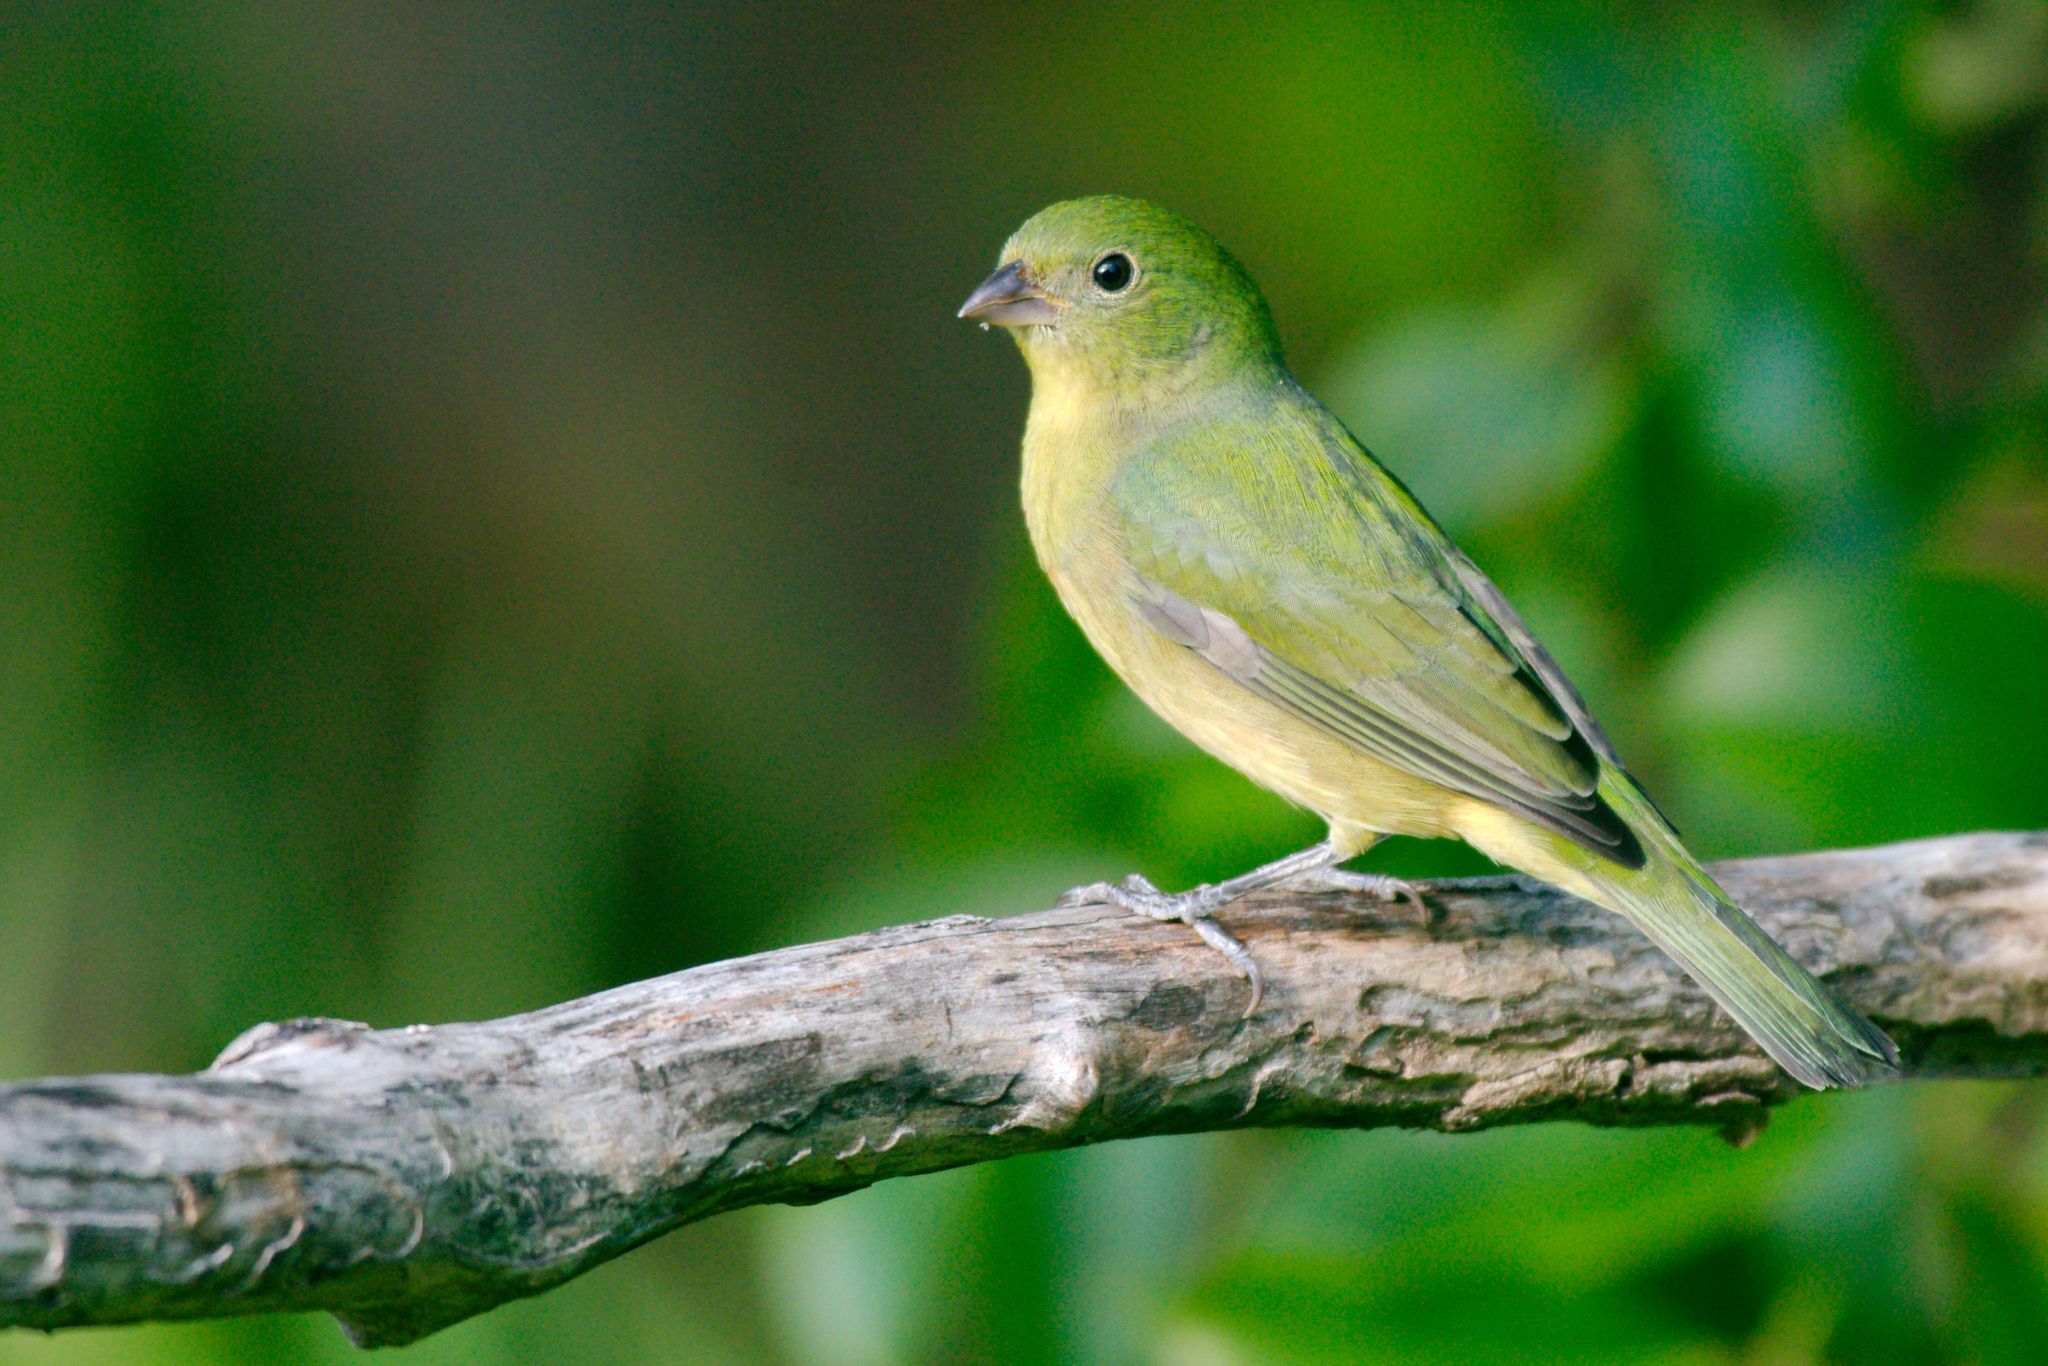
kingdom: Animalia
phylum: Chordata
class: Aves
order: Passeriformes
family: Cardinalidae
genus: Passerina
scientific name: Passerina ciris
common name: Painted bunting
